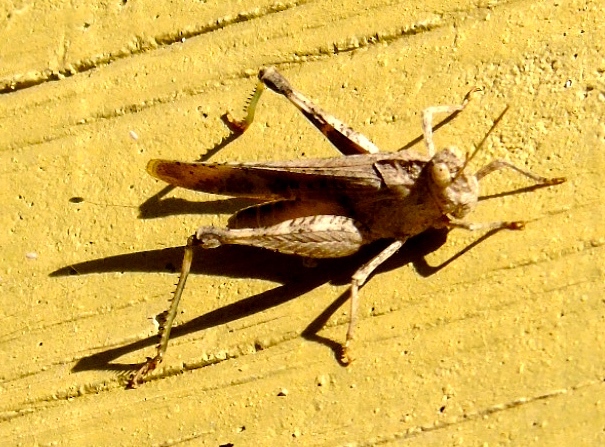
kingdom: Animalia
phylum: Arthropoda
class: Insecta
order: Orthoptera
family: Acrididae
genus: Lactista
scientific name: Lactista elota
